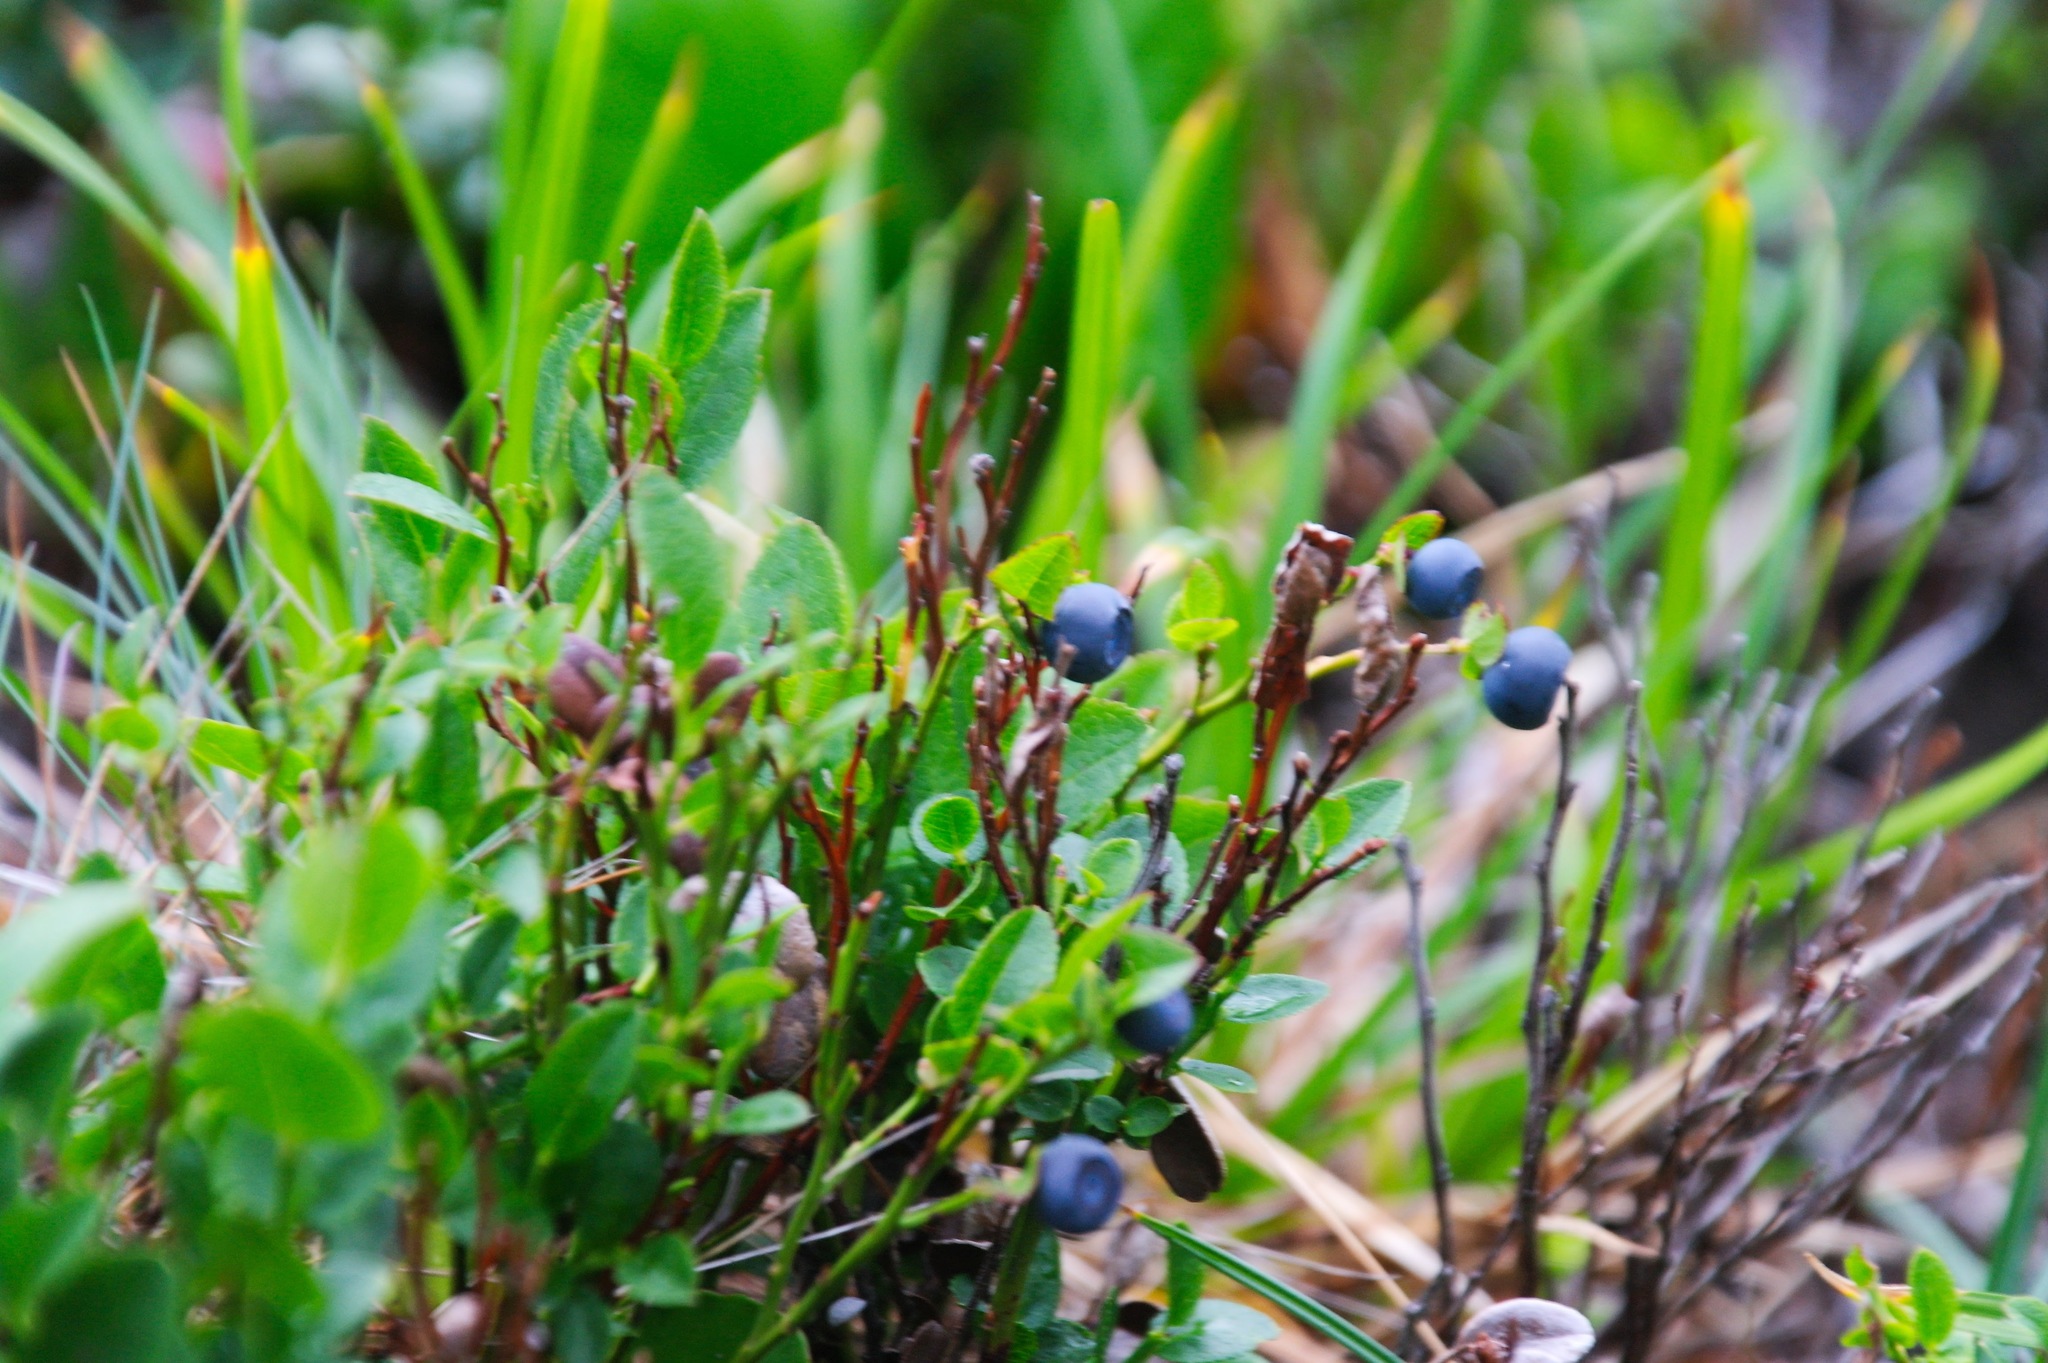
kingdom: Plantae
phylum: Tracheophyta
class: Magnoliopsida
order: Ericales
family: Ericaceae
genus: Vaccinium
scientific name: Vaccinium myrtillus
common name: Bilberry
